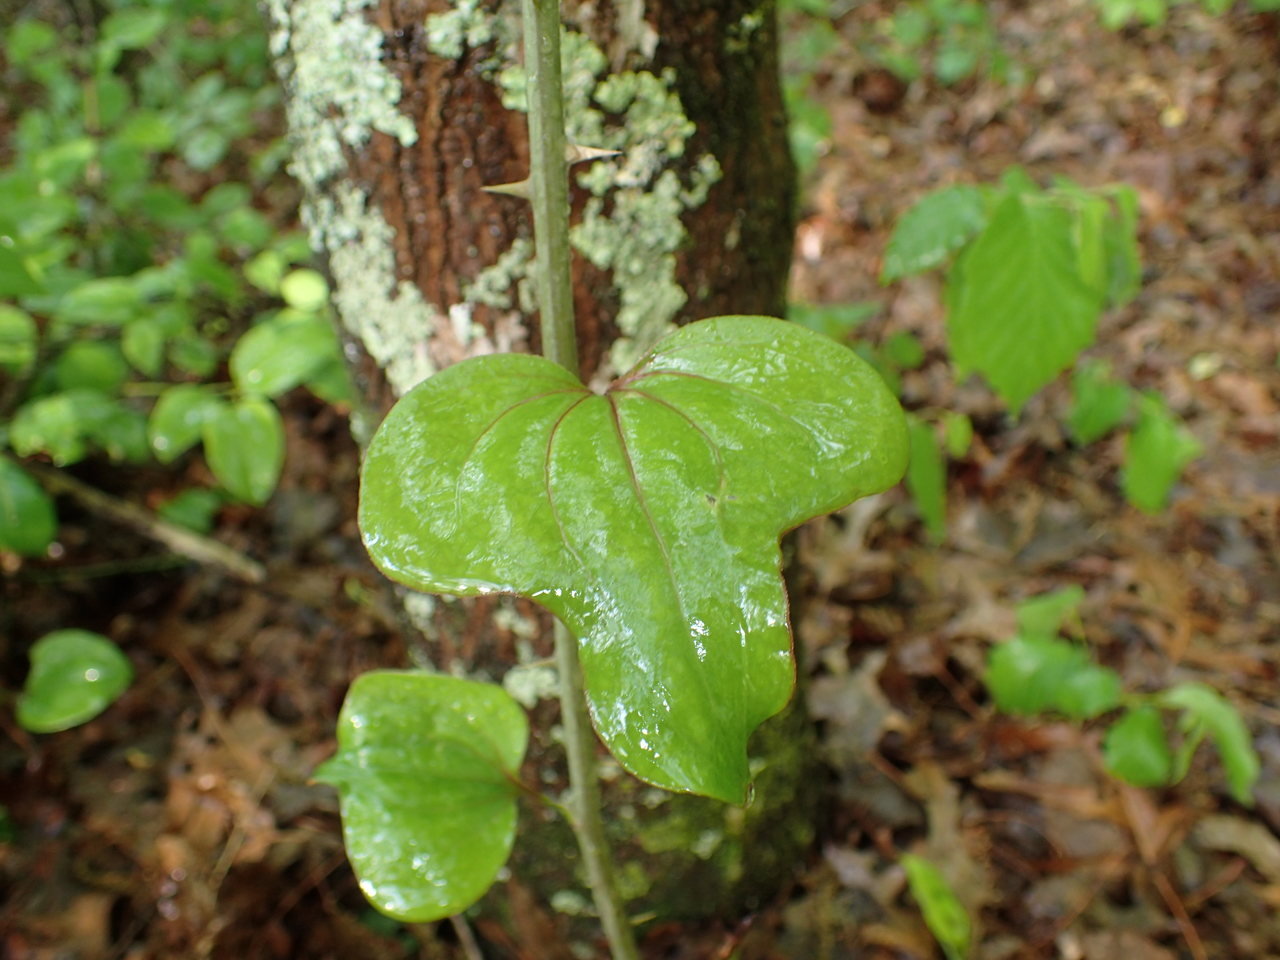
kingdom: Plantae
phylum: Tracheophyta
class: Liliopsida
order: Liliales
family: Smilacaceae
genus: Smilax
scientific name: Smilax bona-nox
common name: Catbrier
